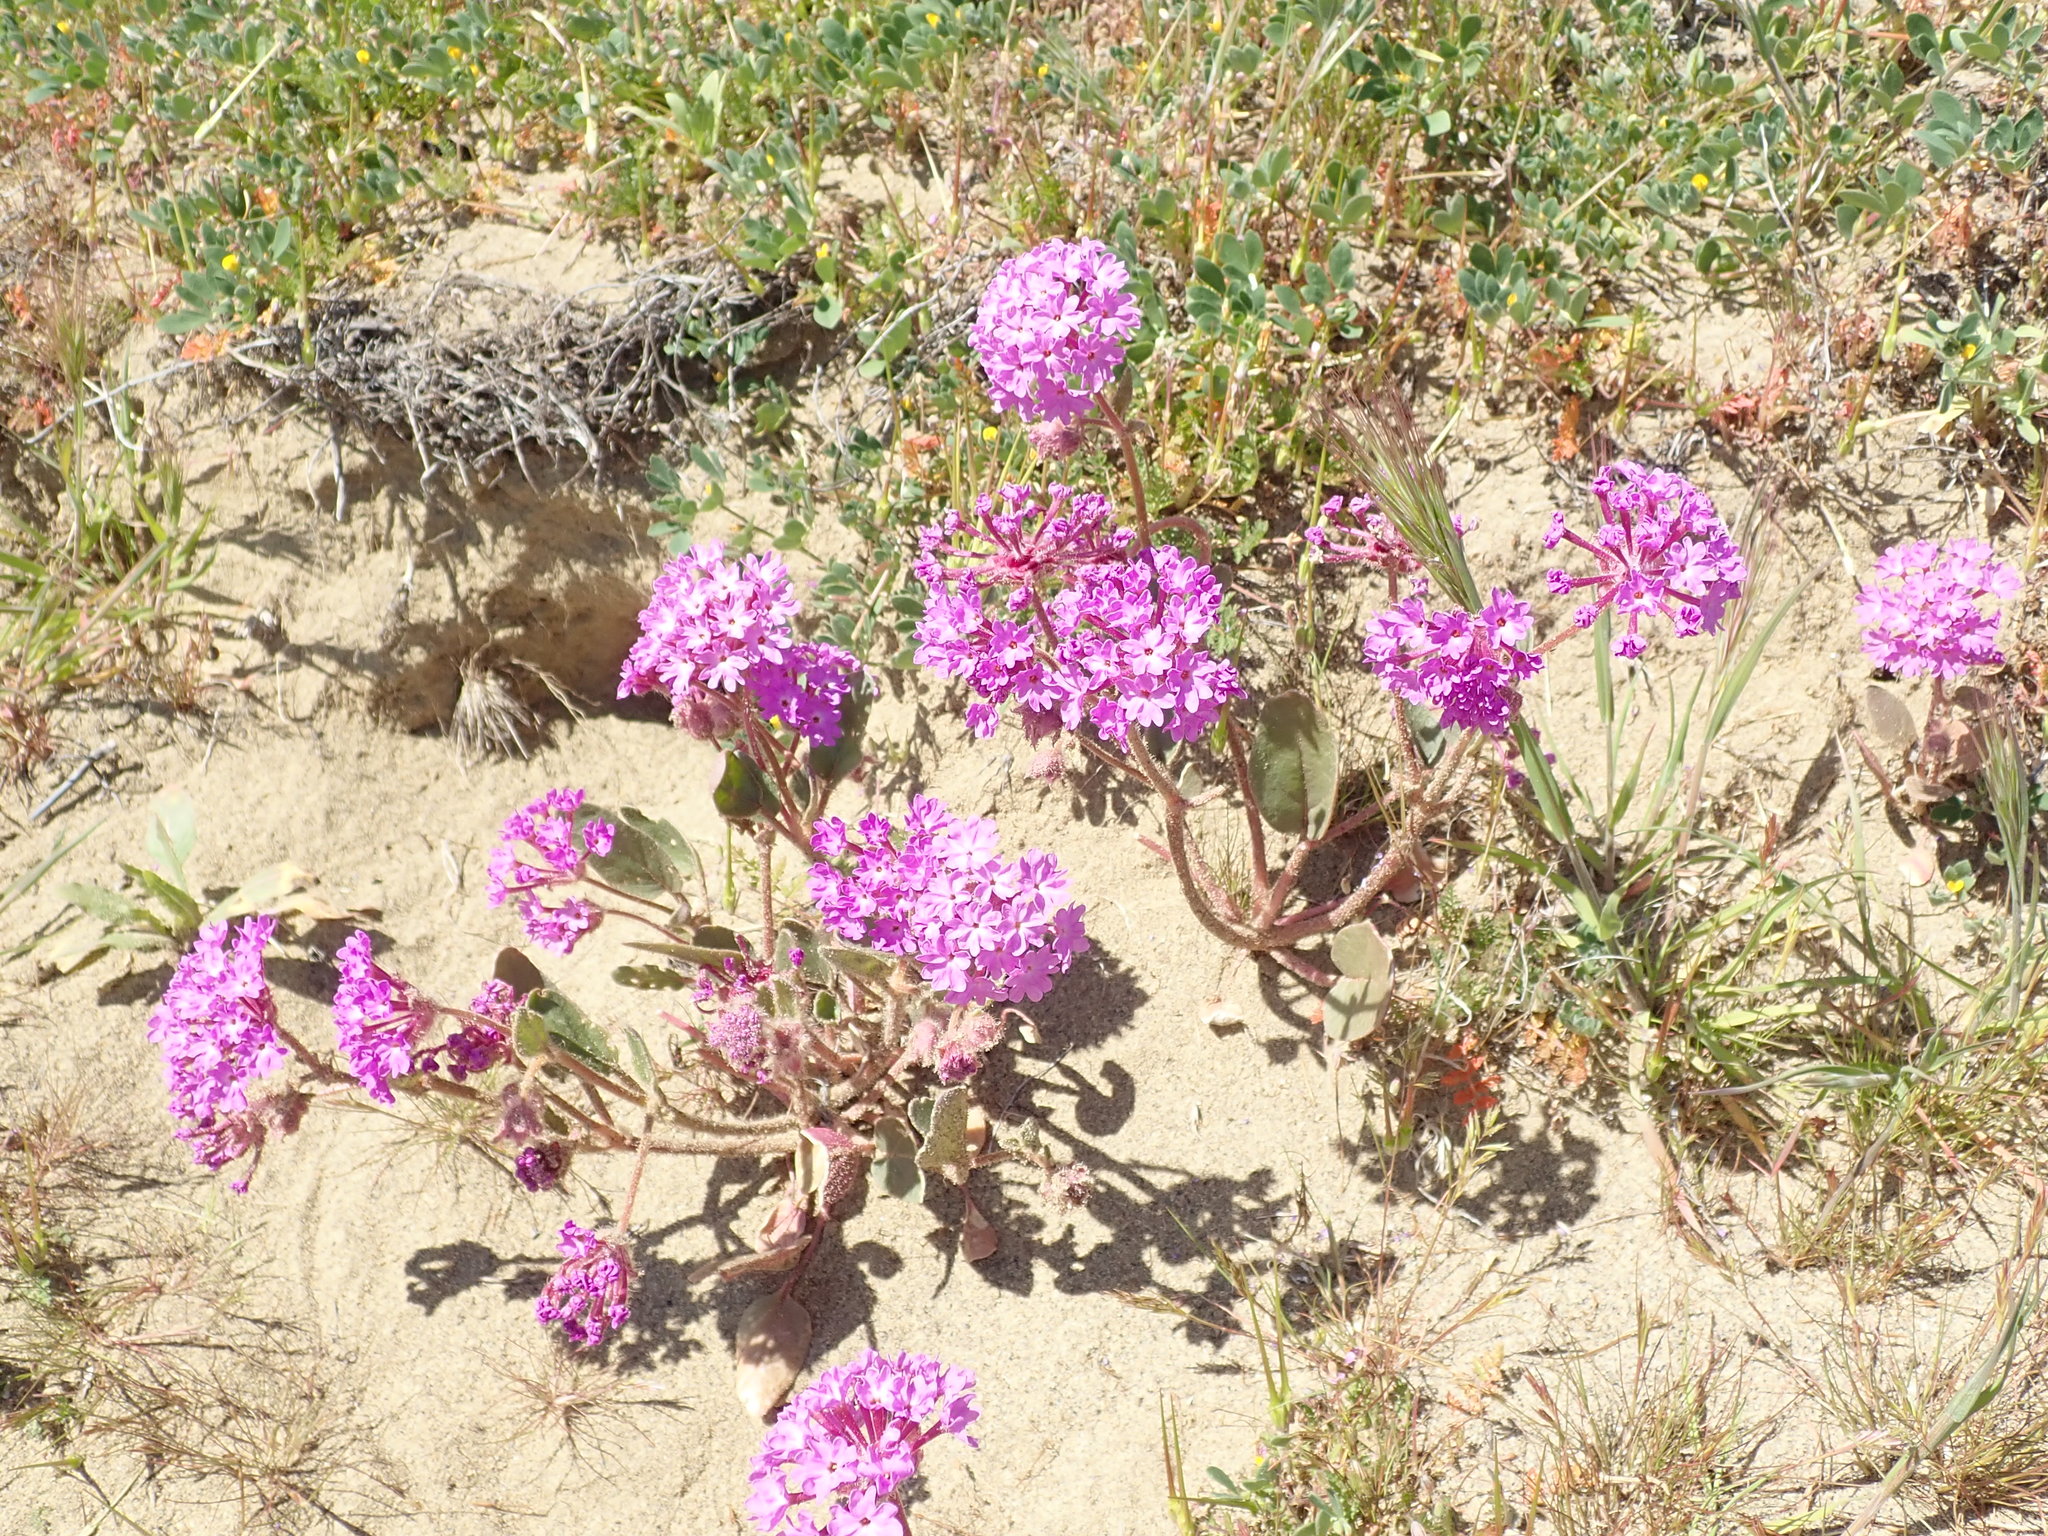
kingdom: Plantae
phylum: Tracheophyta
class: Magnoliopsida
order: Caryophyllales
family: Nyctaginaceae
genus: Abronia
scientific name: Abronia pogonantha
